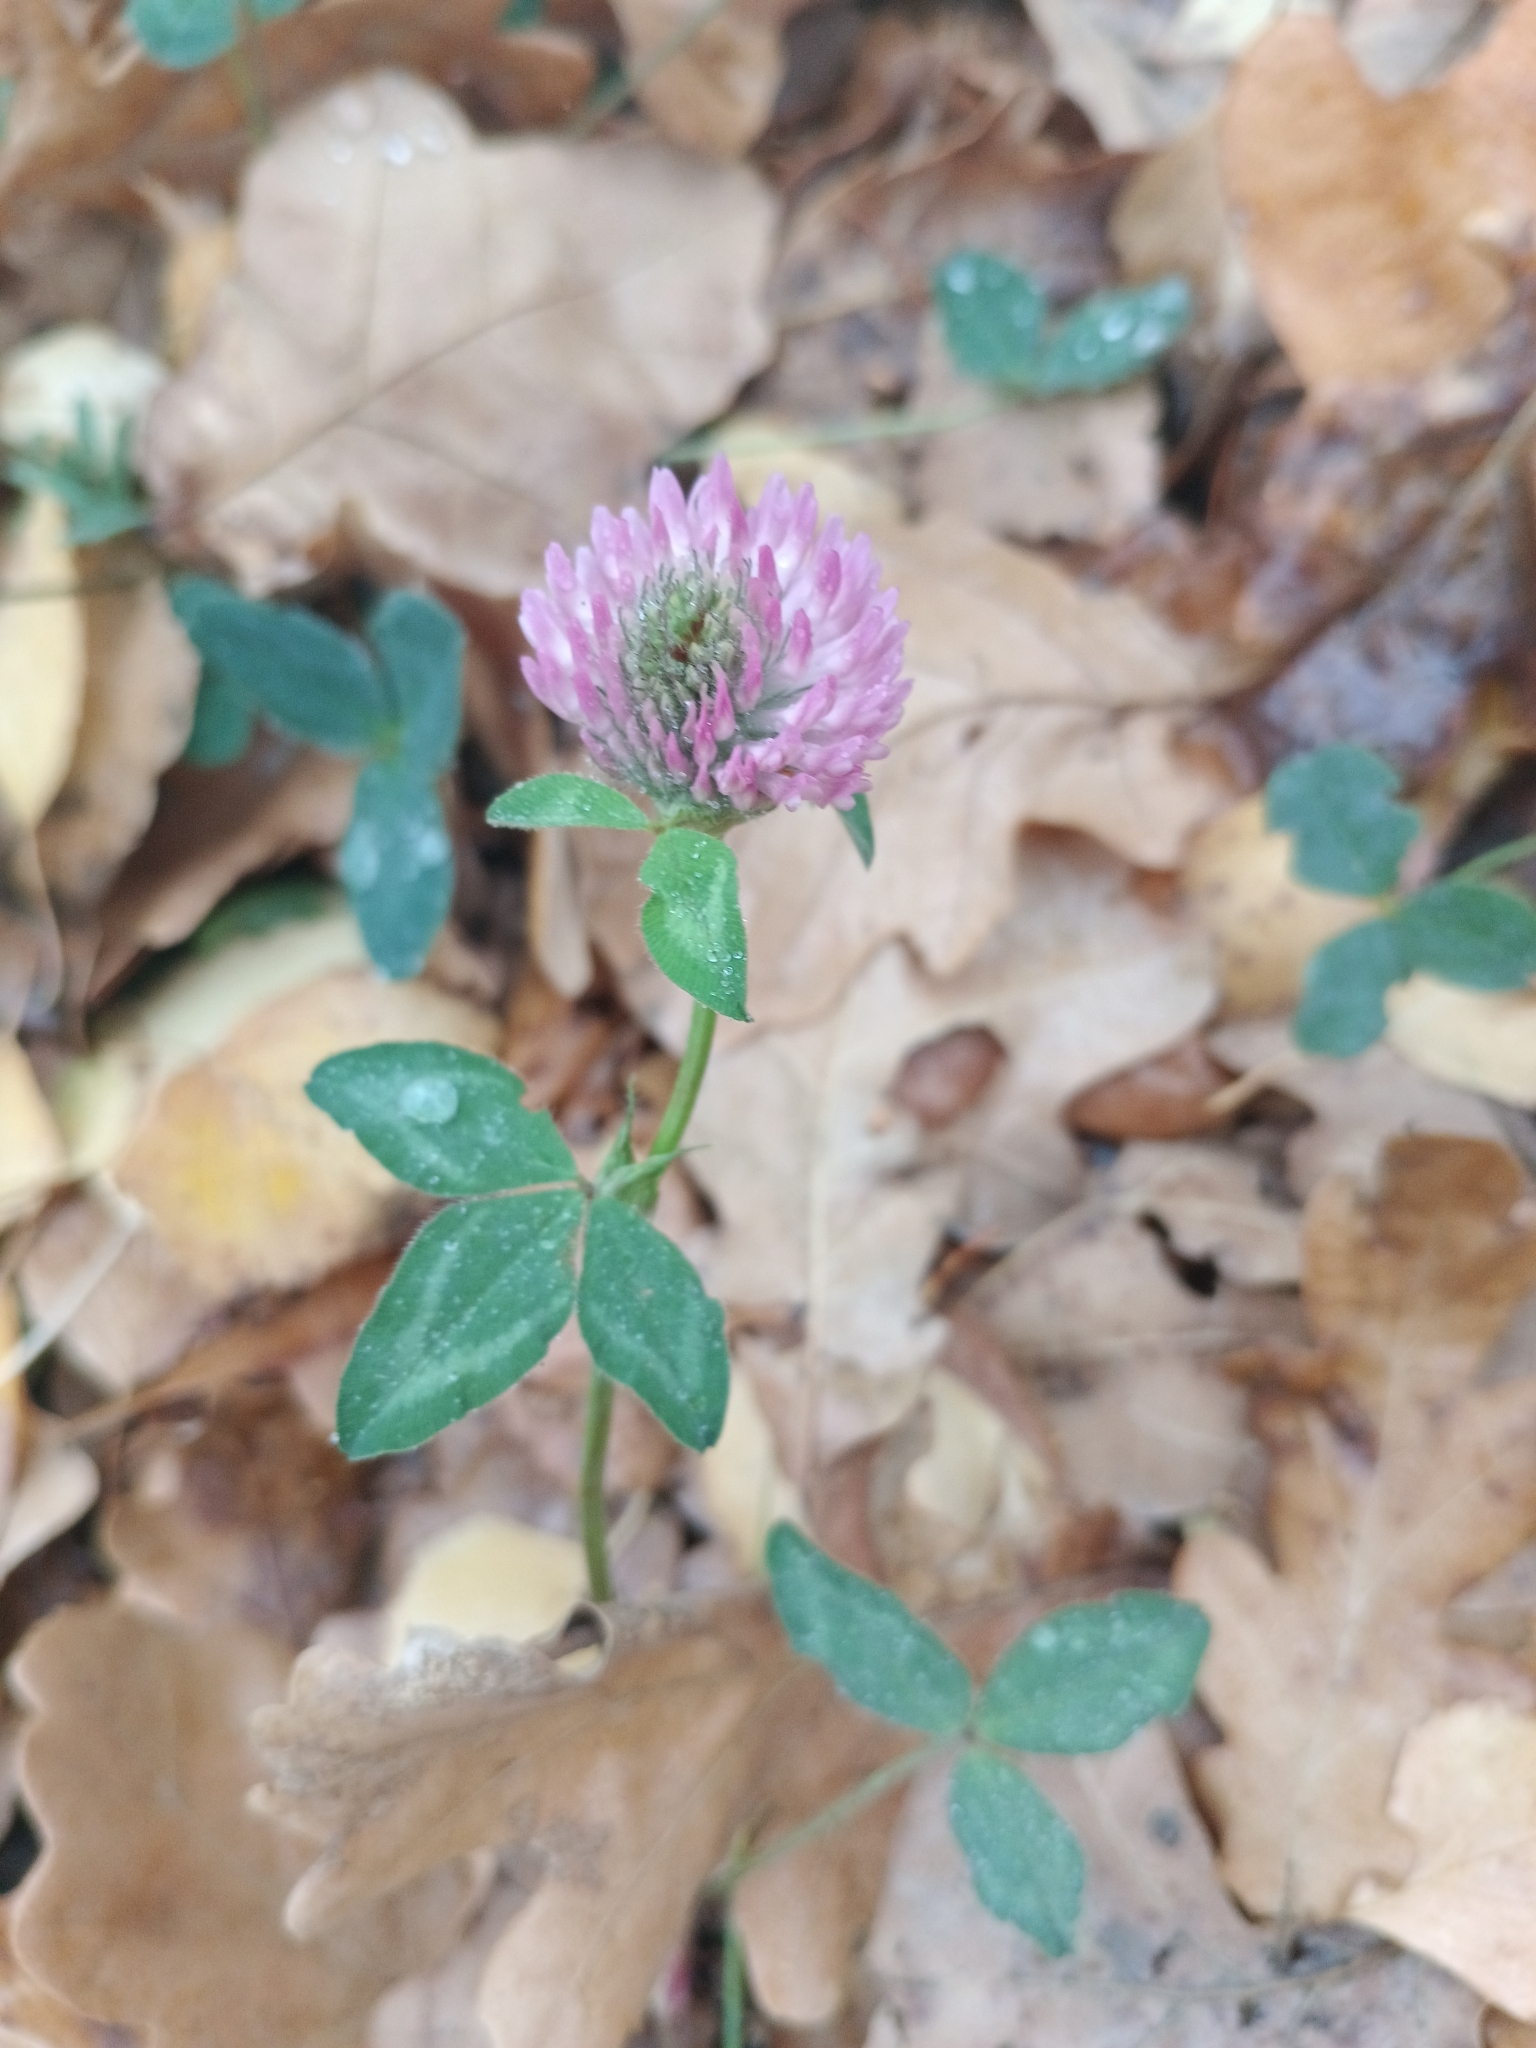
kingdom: Plantae
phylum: Tracheophyta
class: Magnoliopsida
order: Fabales
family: Fabaceae
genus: Trifolium
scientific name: Trifolium pratense
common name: Red clover
